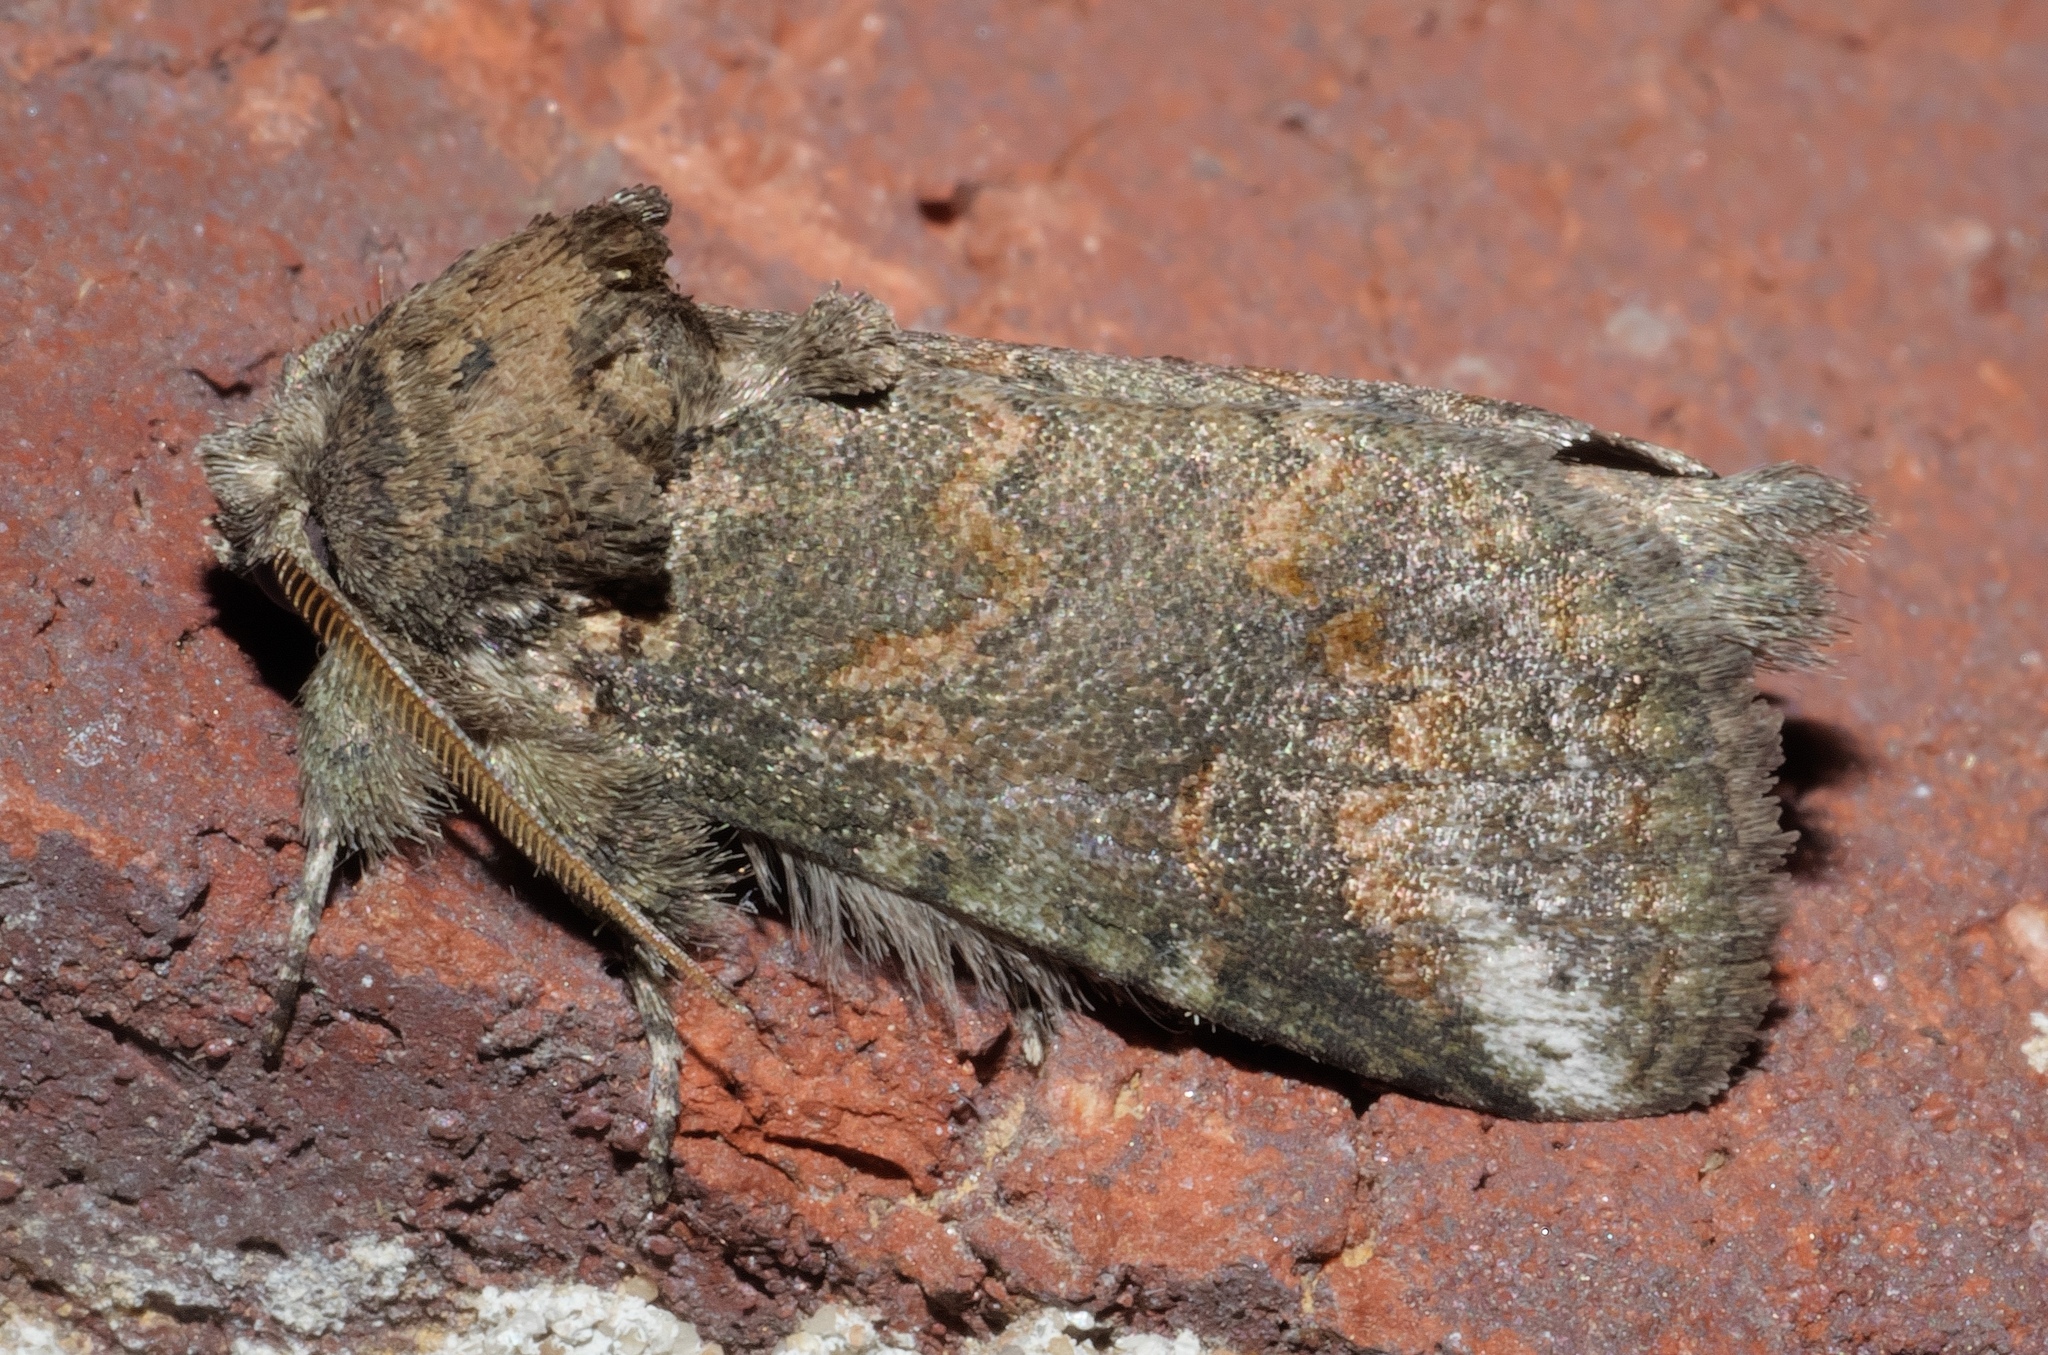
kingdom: Animalia
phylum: Arthropoda
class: Insecta
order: Lepidoptera
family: Notodontidae
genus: Rifargia
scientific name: Rifargia
